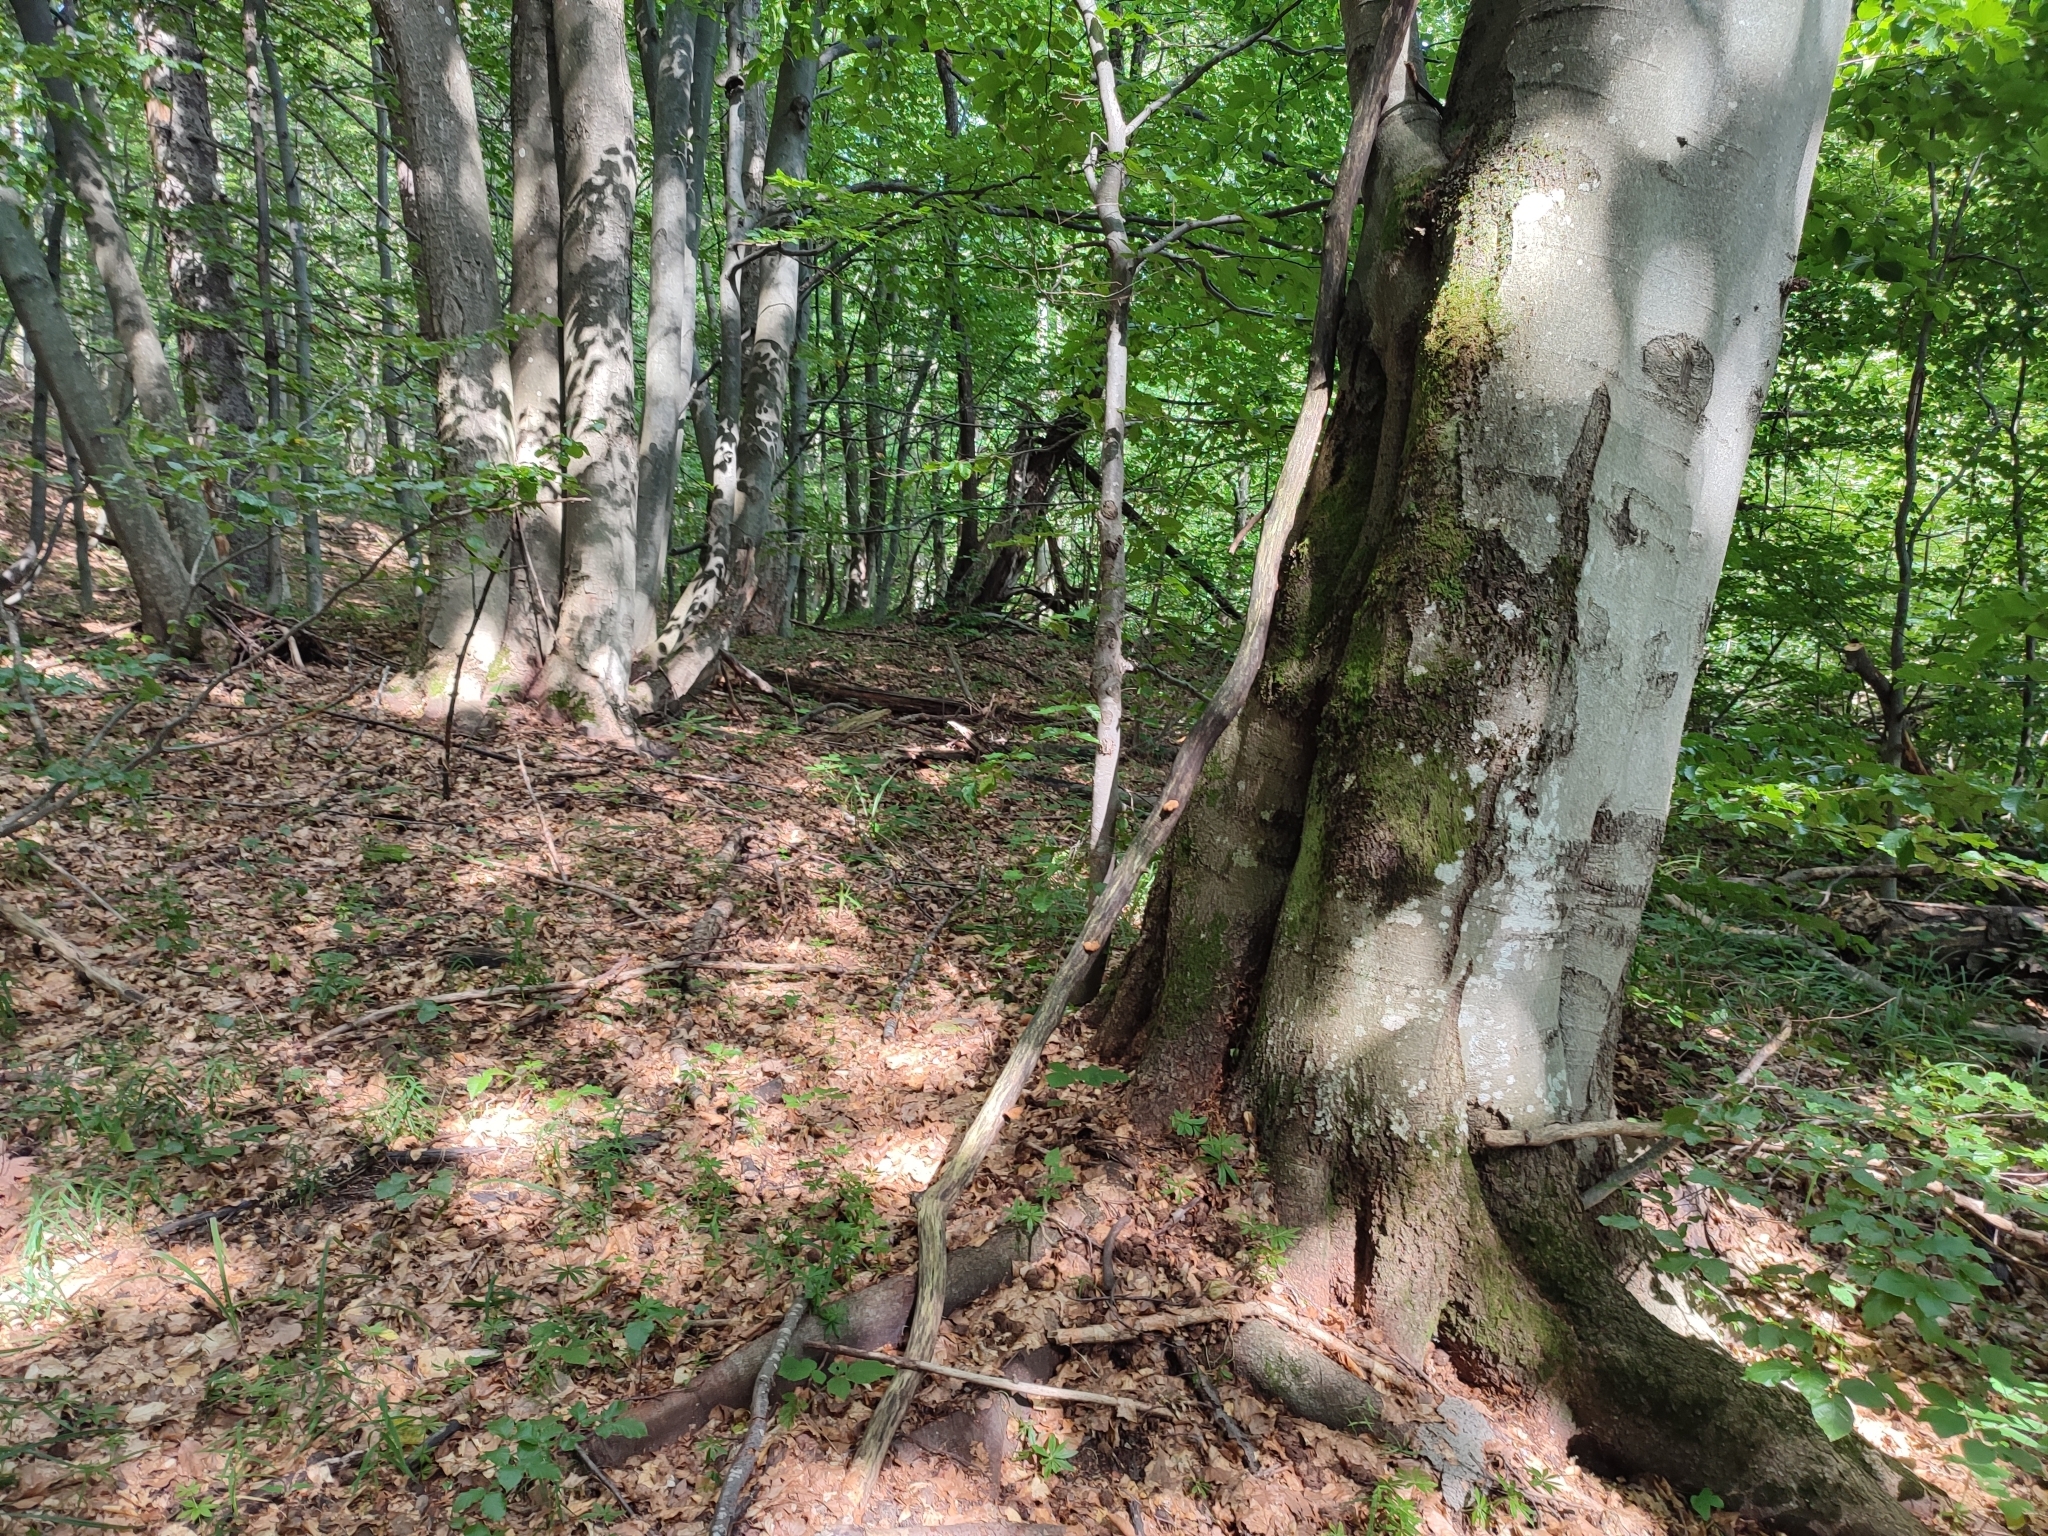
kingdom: Plantae
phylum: Tracheophyta
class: Magnoliopsida
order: Fagales
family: Fagaceae
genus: Fagus
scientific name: Fagus sylvatica
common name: Beech
